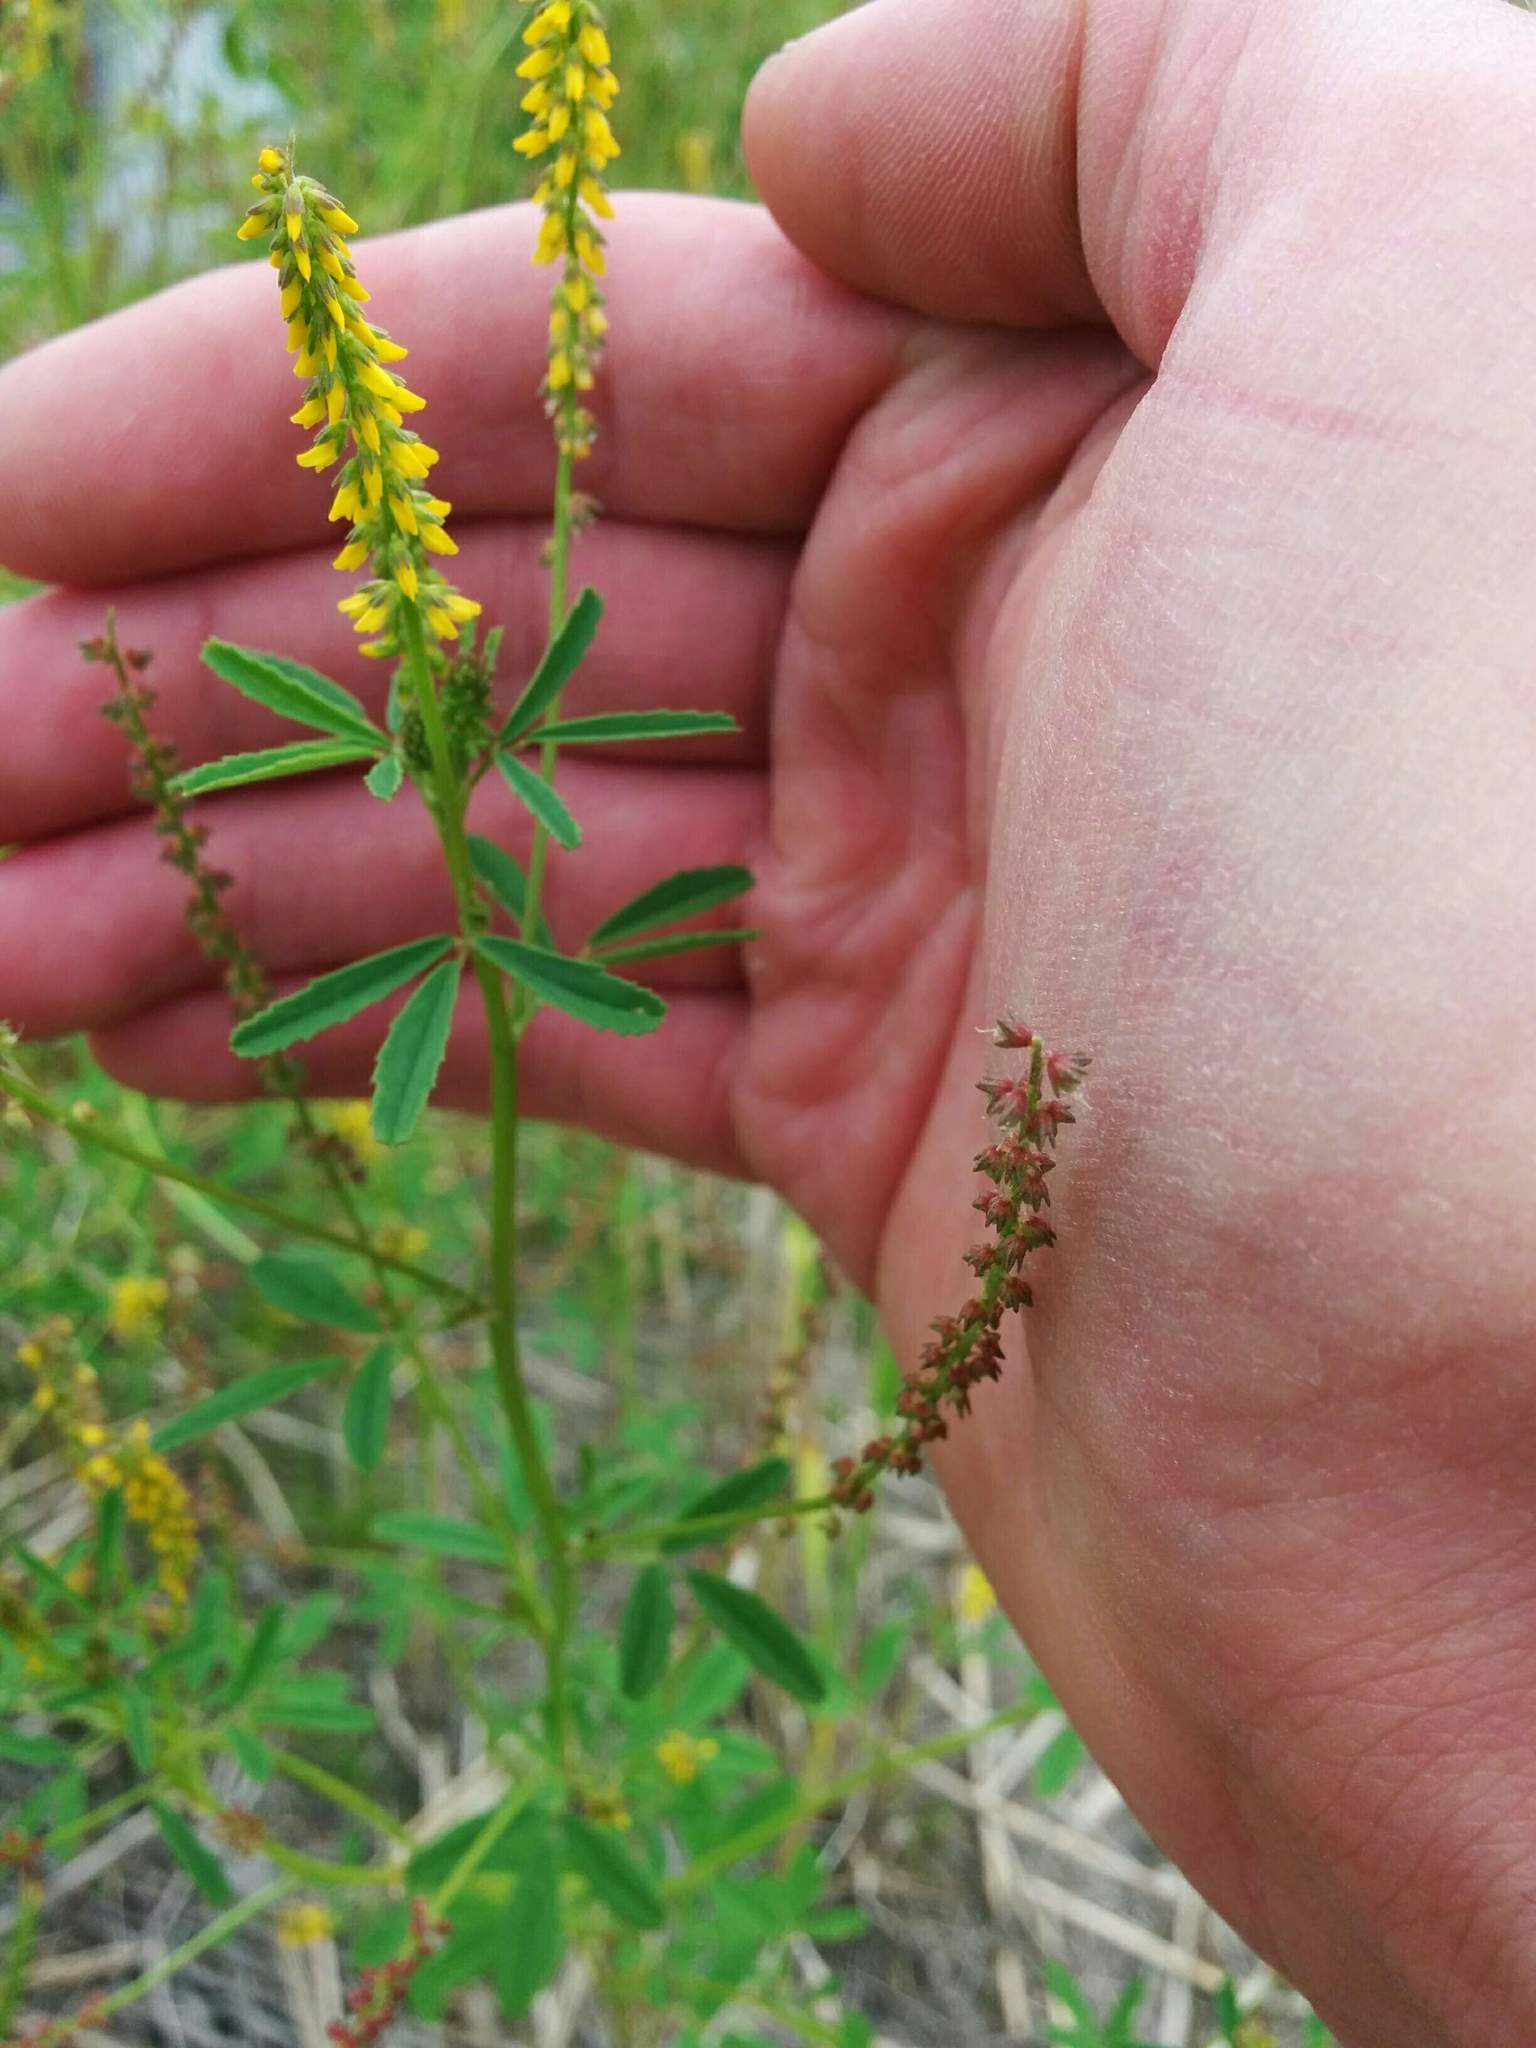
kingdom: Plantae
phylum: Tracheophyta
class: Magnoliopsida
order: Fabales
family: Fabaceae
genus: Melilotus
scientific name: Melilotus indicus
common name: Small melilot
